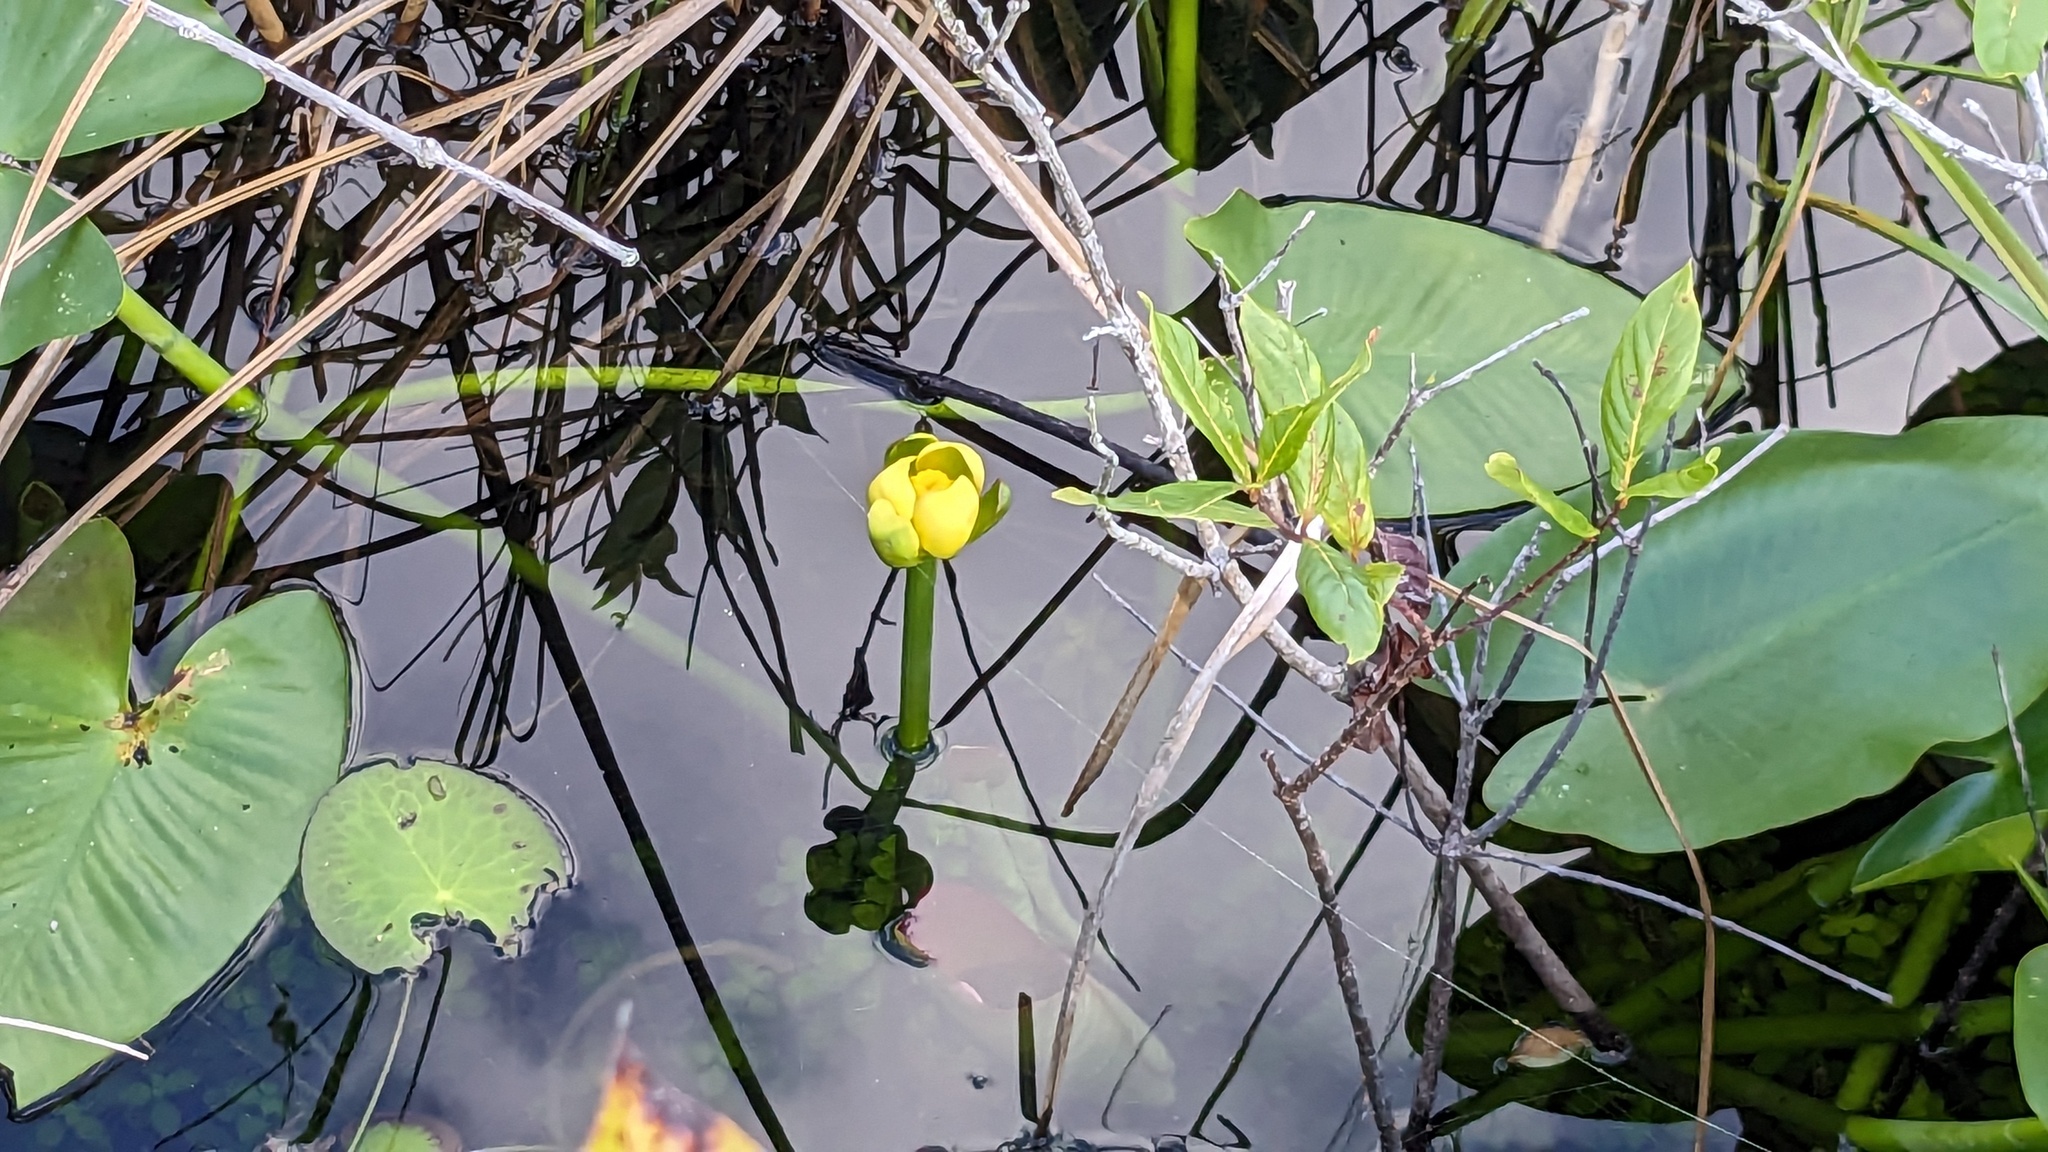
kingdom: Plantae
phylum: Tracheophyta
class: Magnoliopsida
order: Nymphaeales
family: Nymphaeaceae
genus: Nuphar
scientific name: Nuphar advena
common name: Spatter-dock
